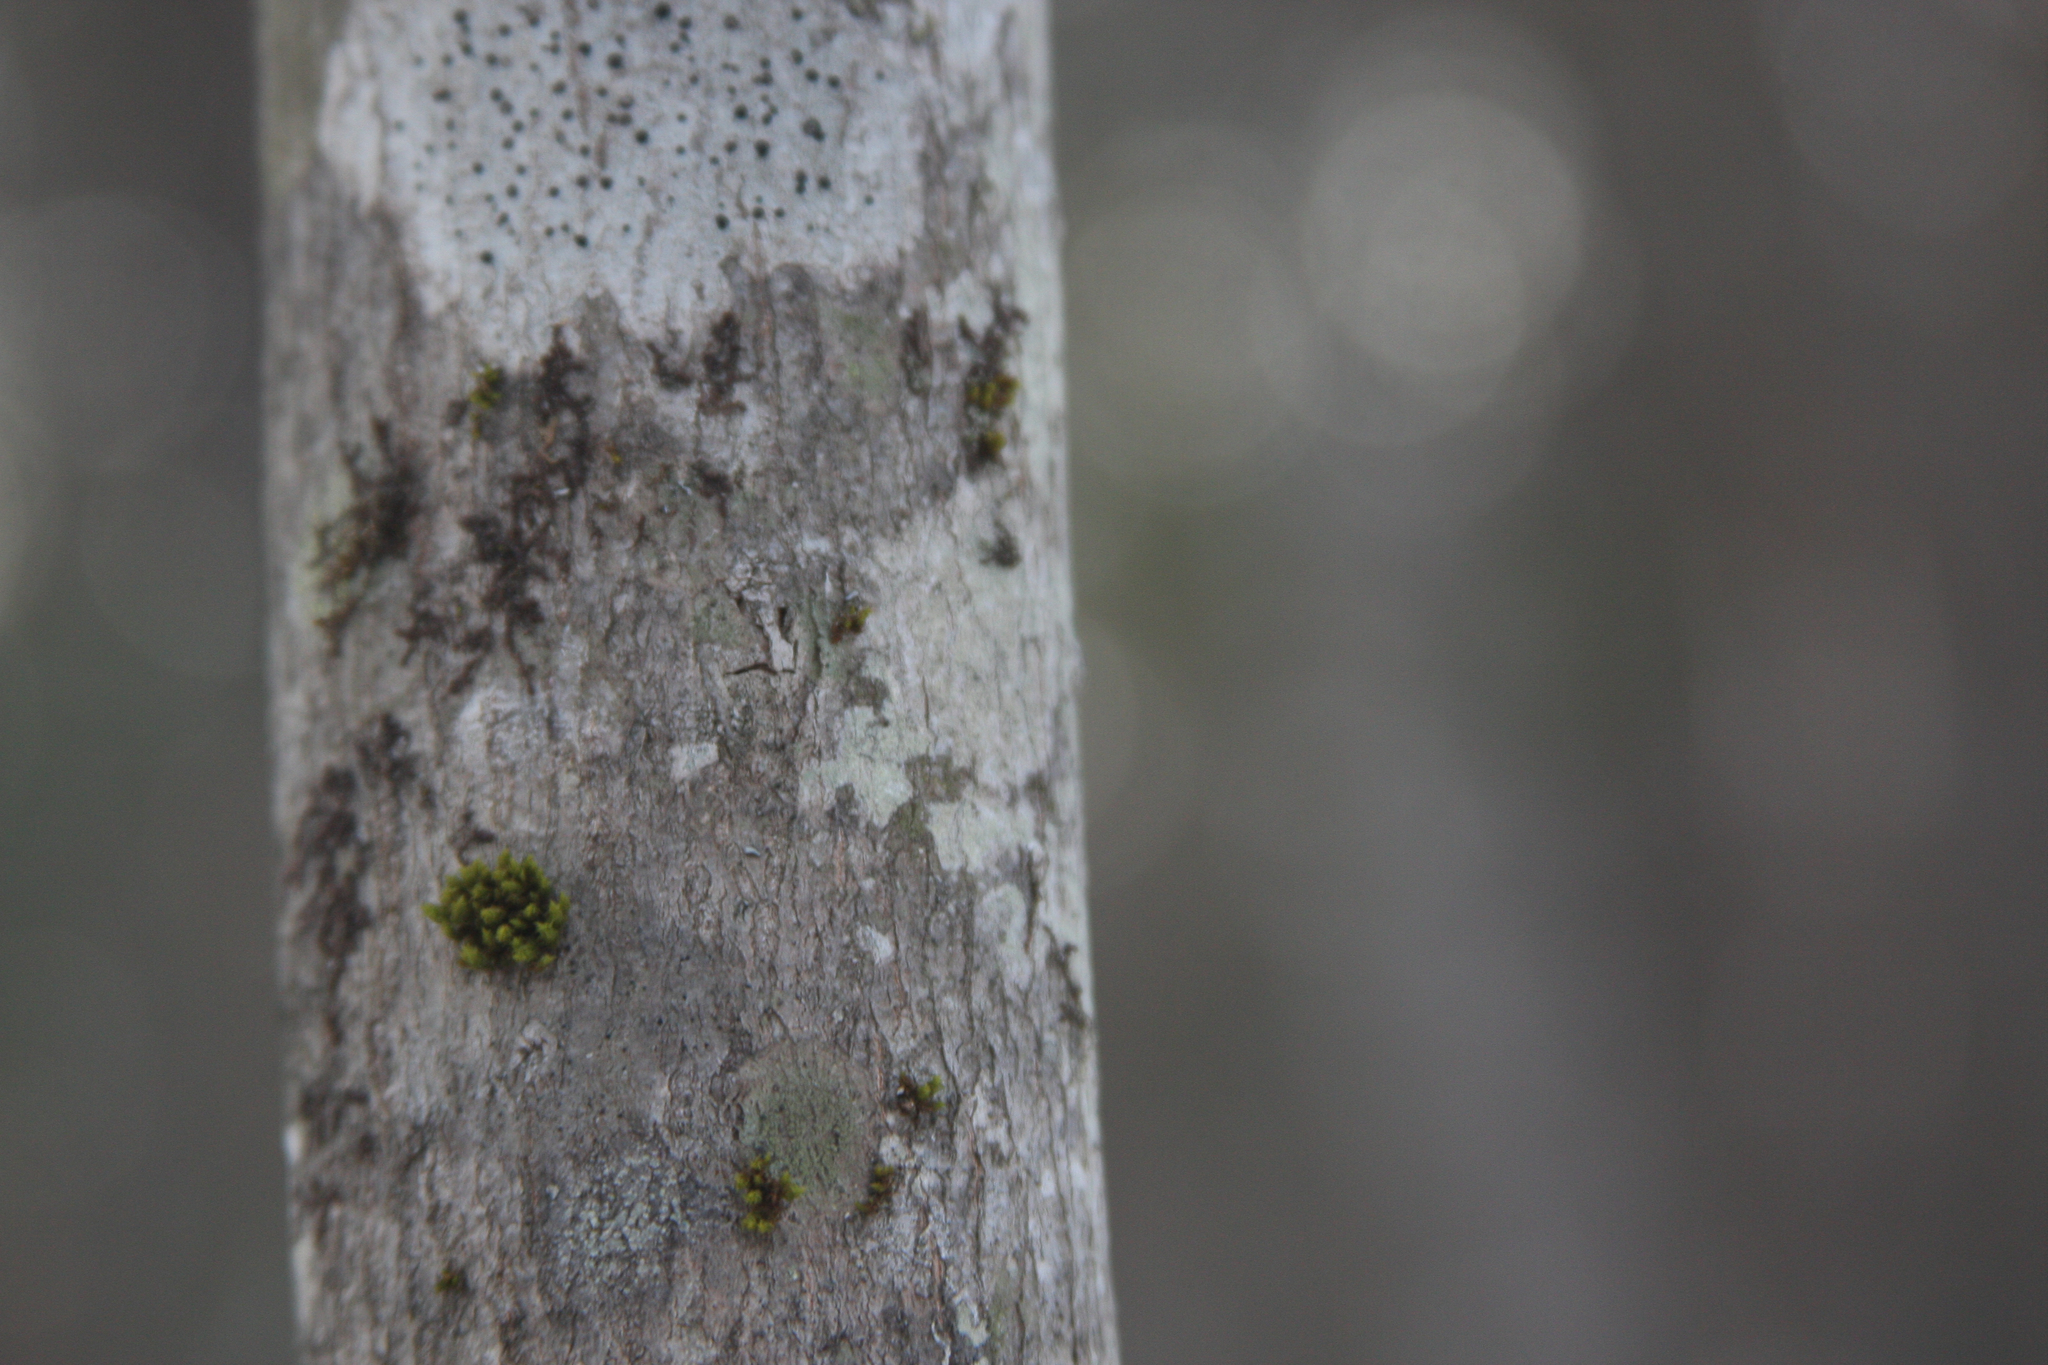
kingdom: Plantae
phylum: Bryophyta
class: Bryopsida
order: Orthotrichales
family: Orthotrichaceae
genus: Ulota
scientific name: Ulota crispa
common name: Crisped pincushion moss
